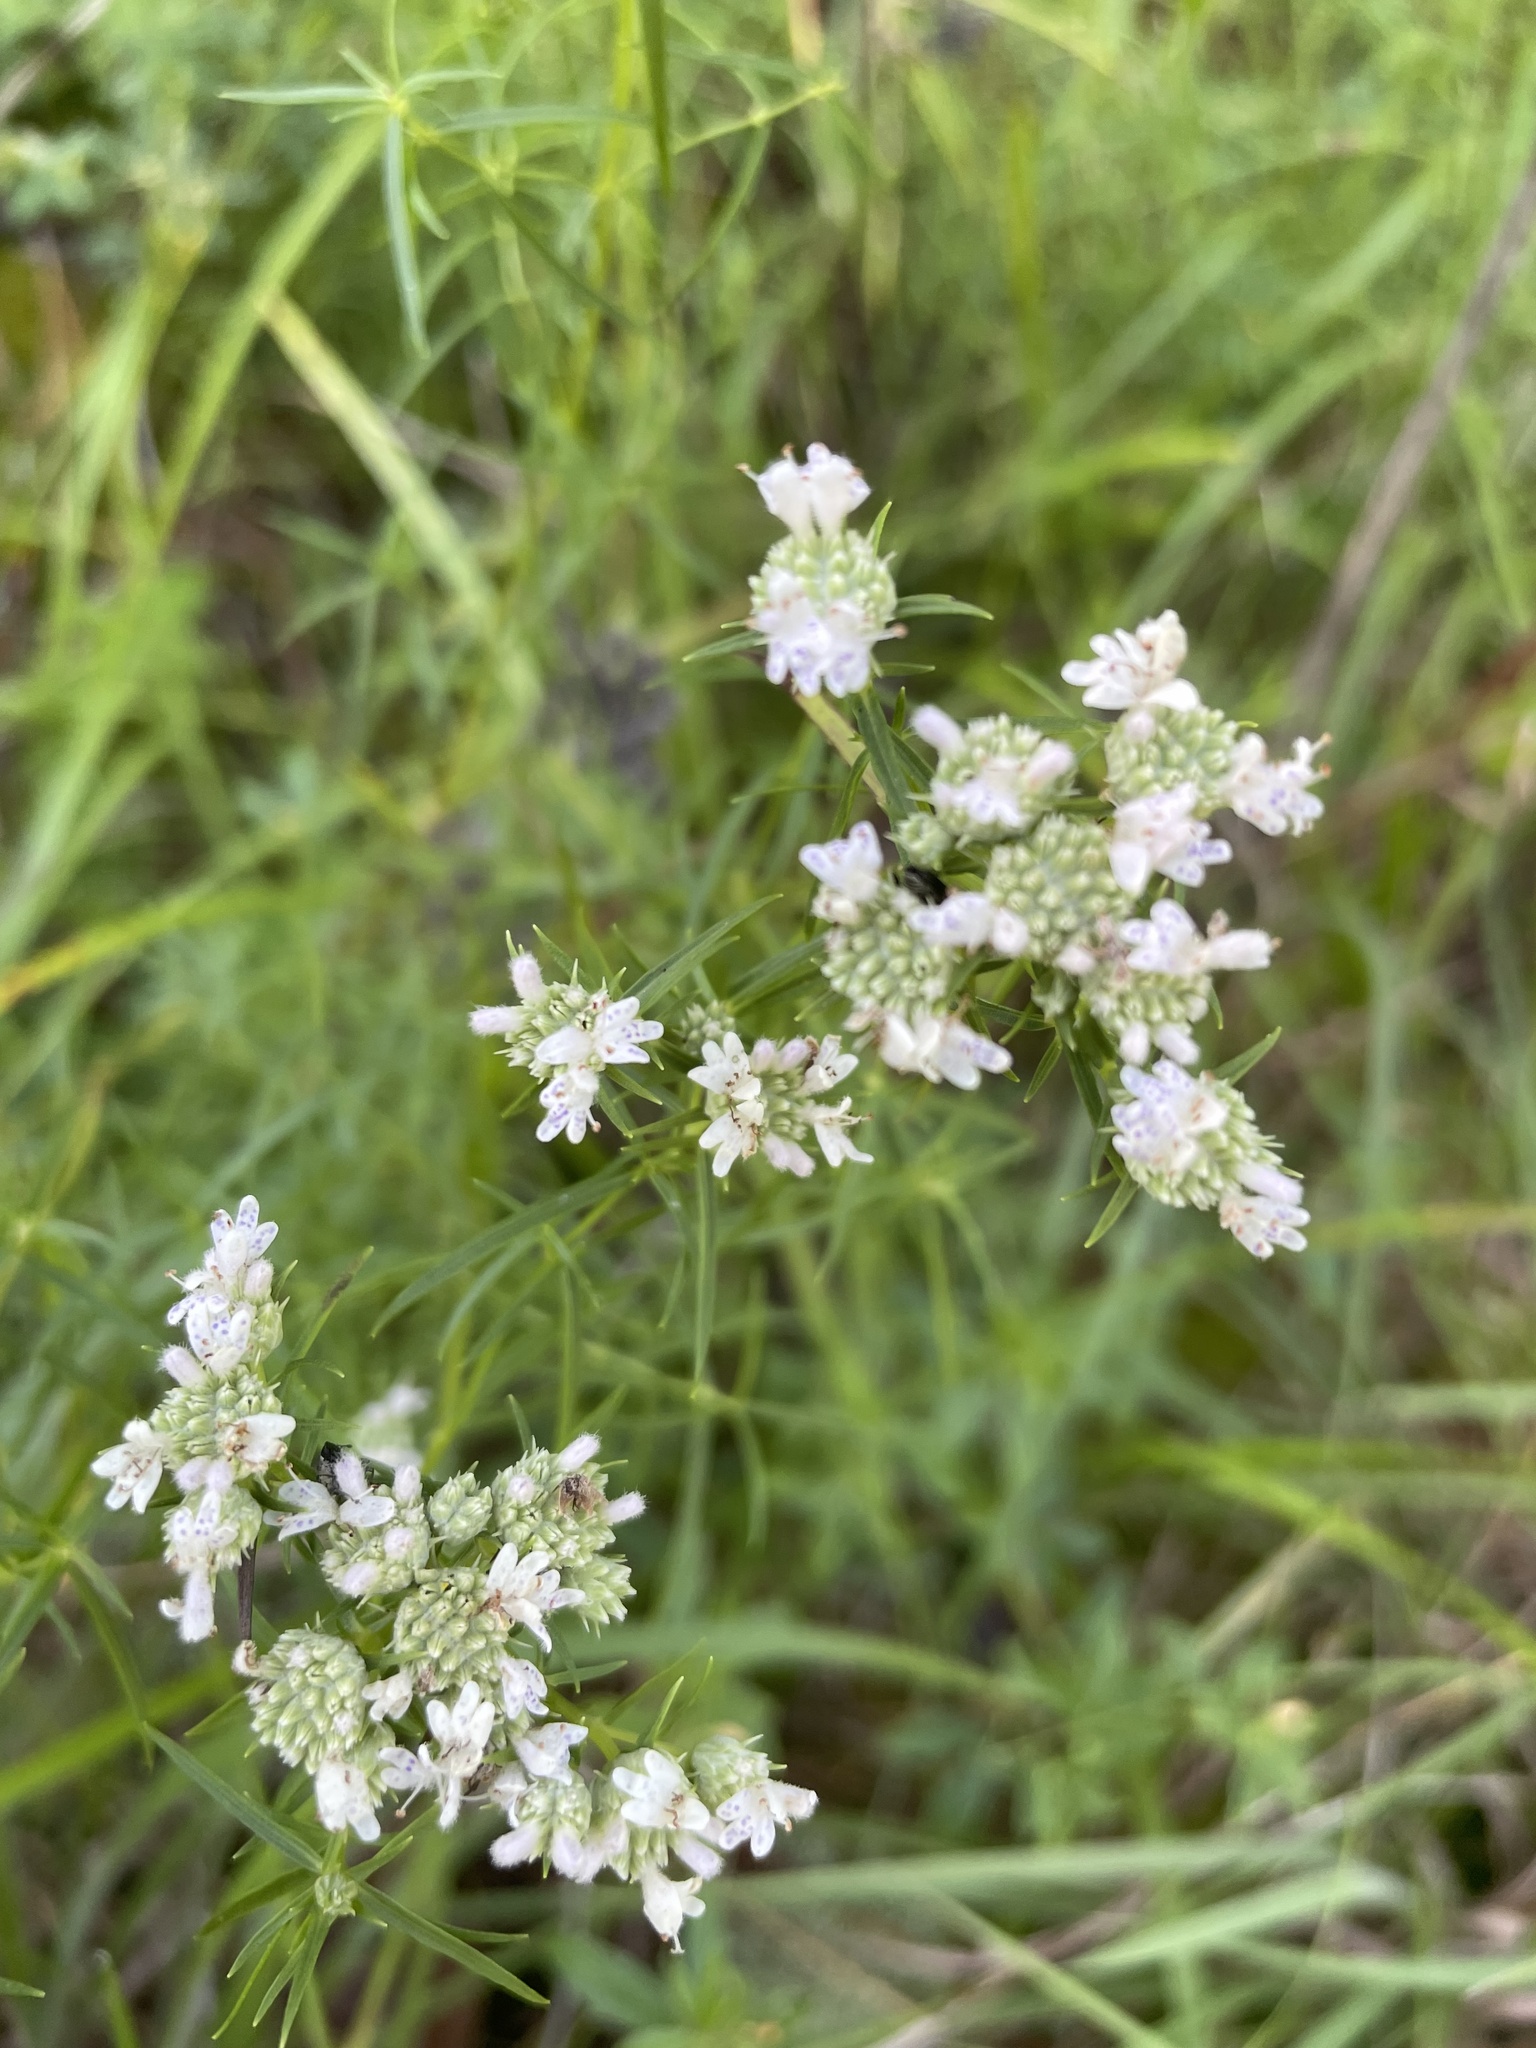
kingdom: Plantae
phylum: Tracheophyta
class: Magnoliopsida
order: Lamiales
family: Lamiaceae
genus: Pycnanthemum
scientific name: Pycnanthemum tenuifolium
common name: Narrow-leaf mountain-mint
